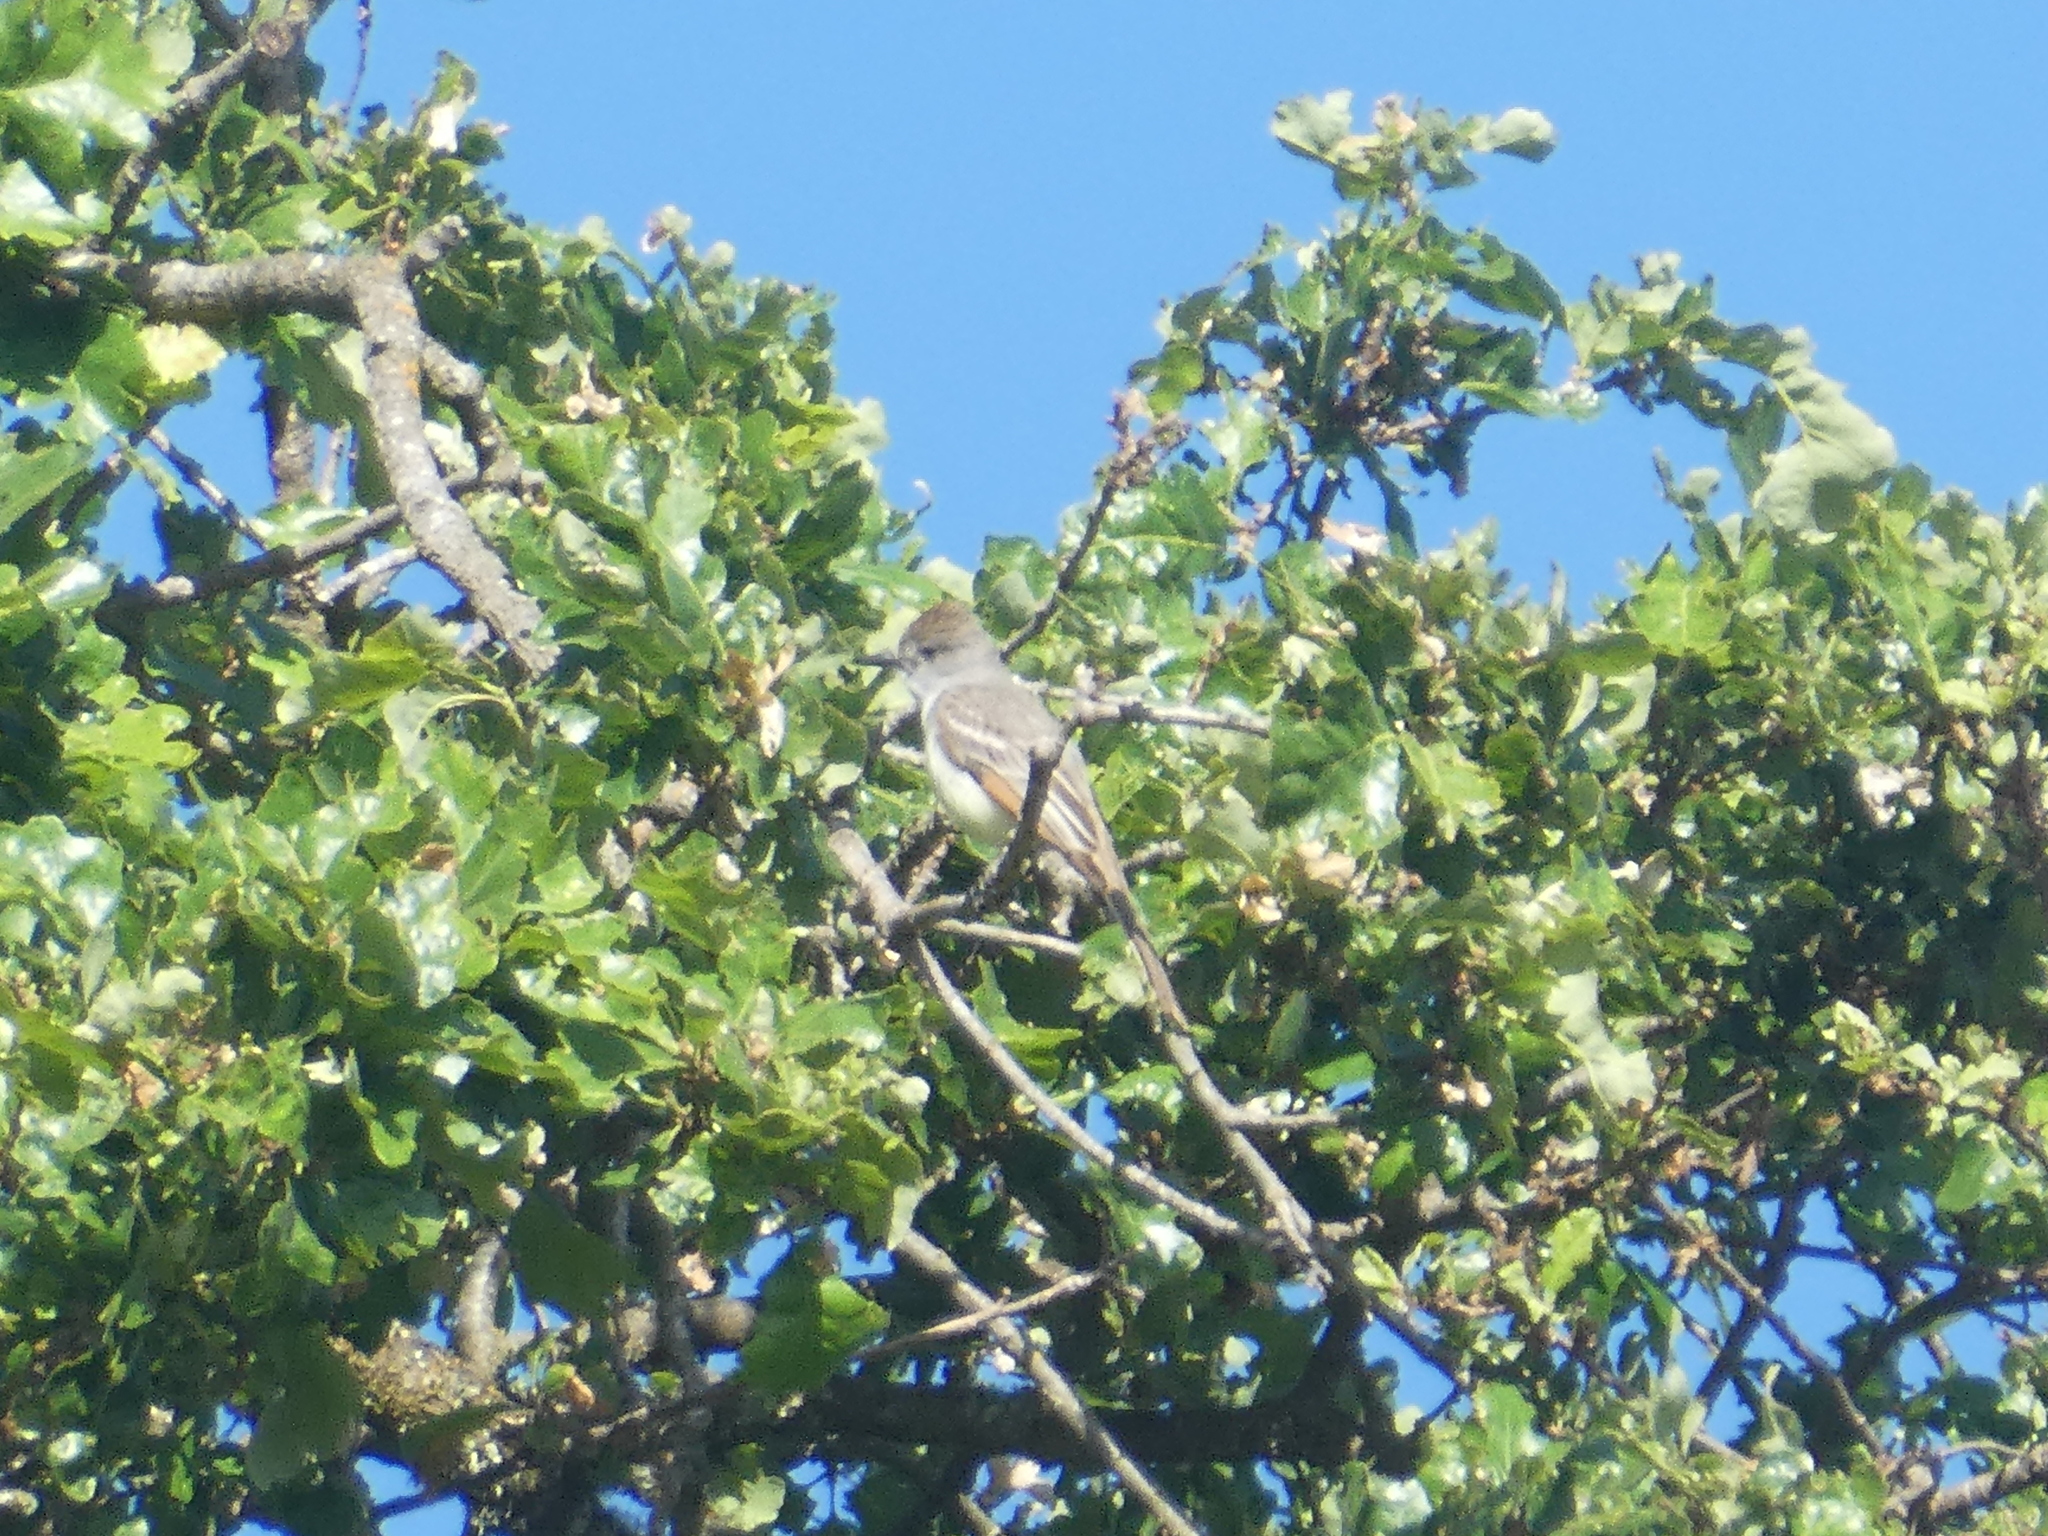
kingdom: Animalia
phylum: Chordata
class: Aves
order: Passeriformes
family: Tyrannidae
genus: Myiarchus
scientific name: Myiarchus cinerascens
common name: Ash-throated flycatcher
